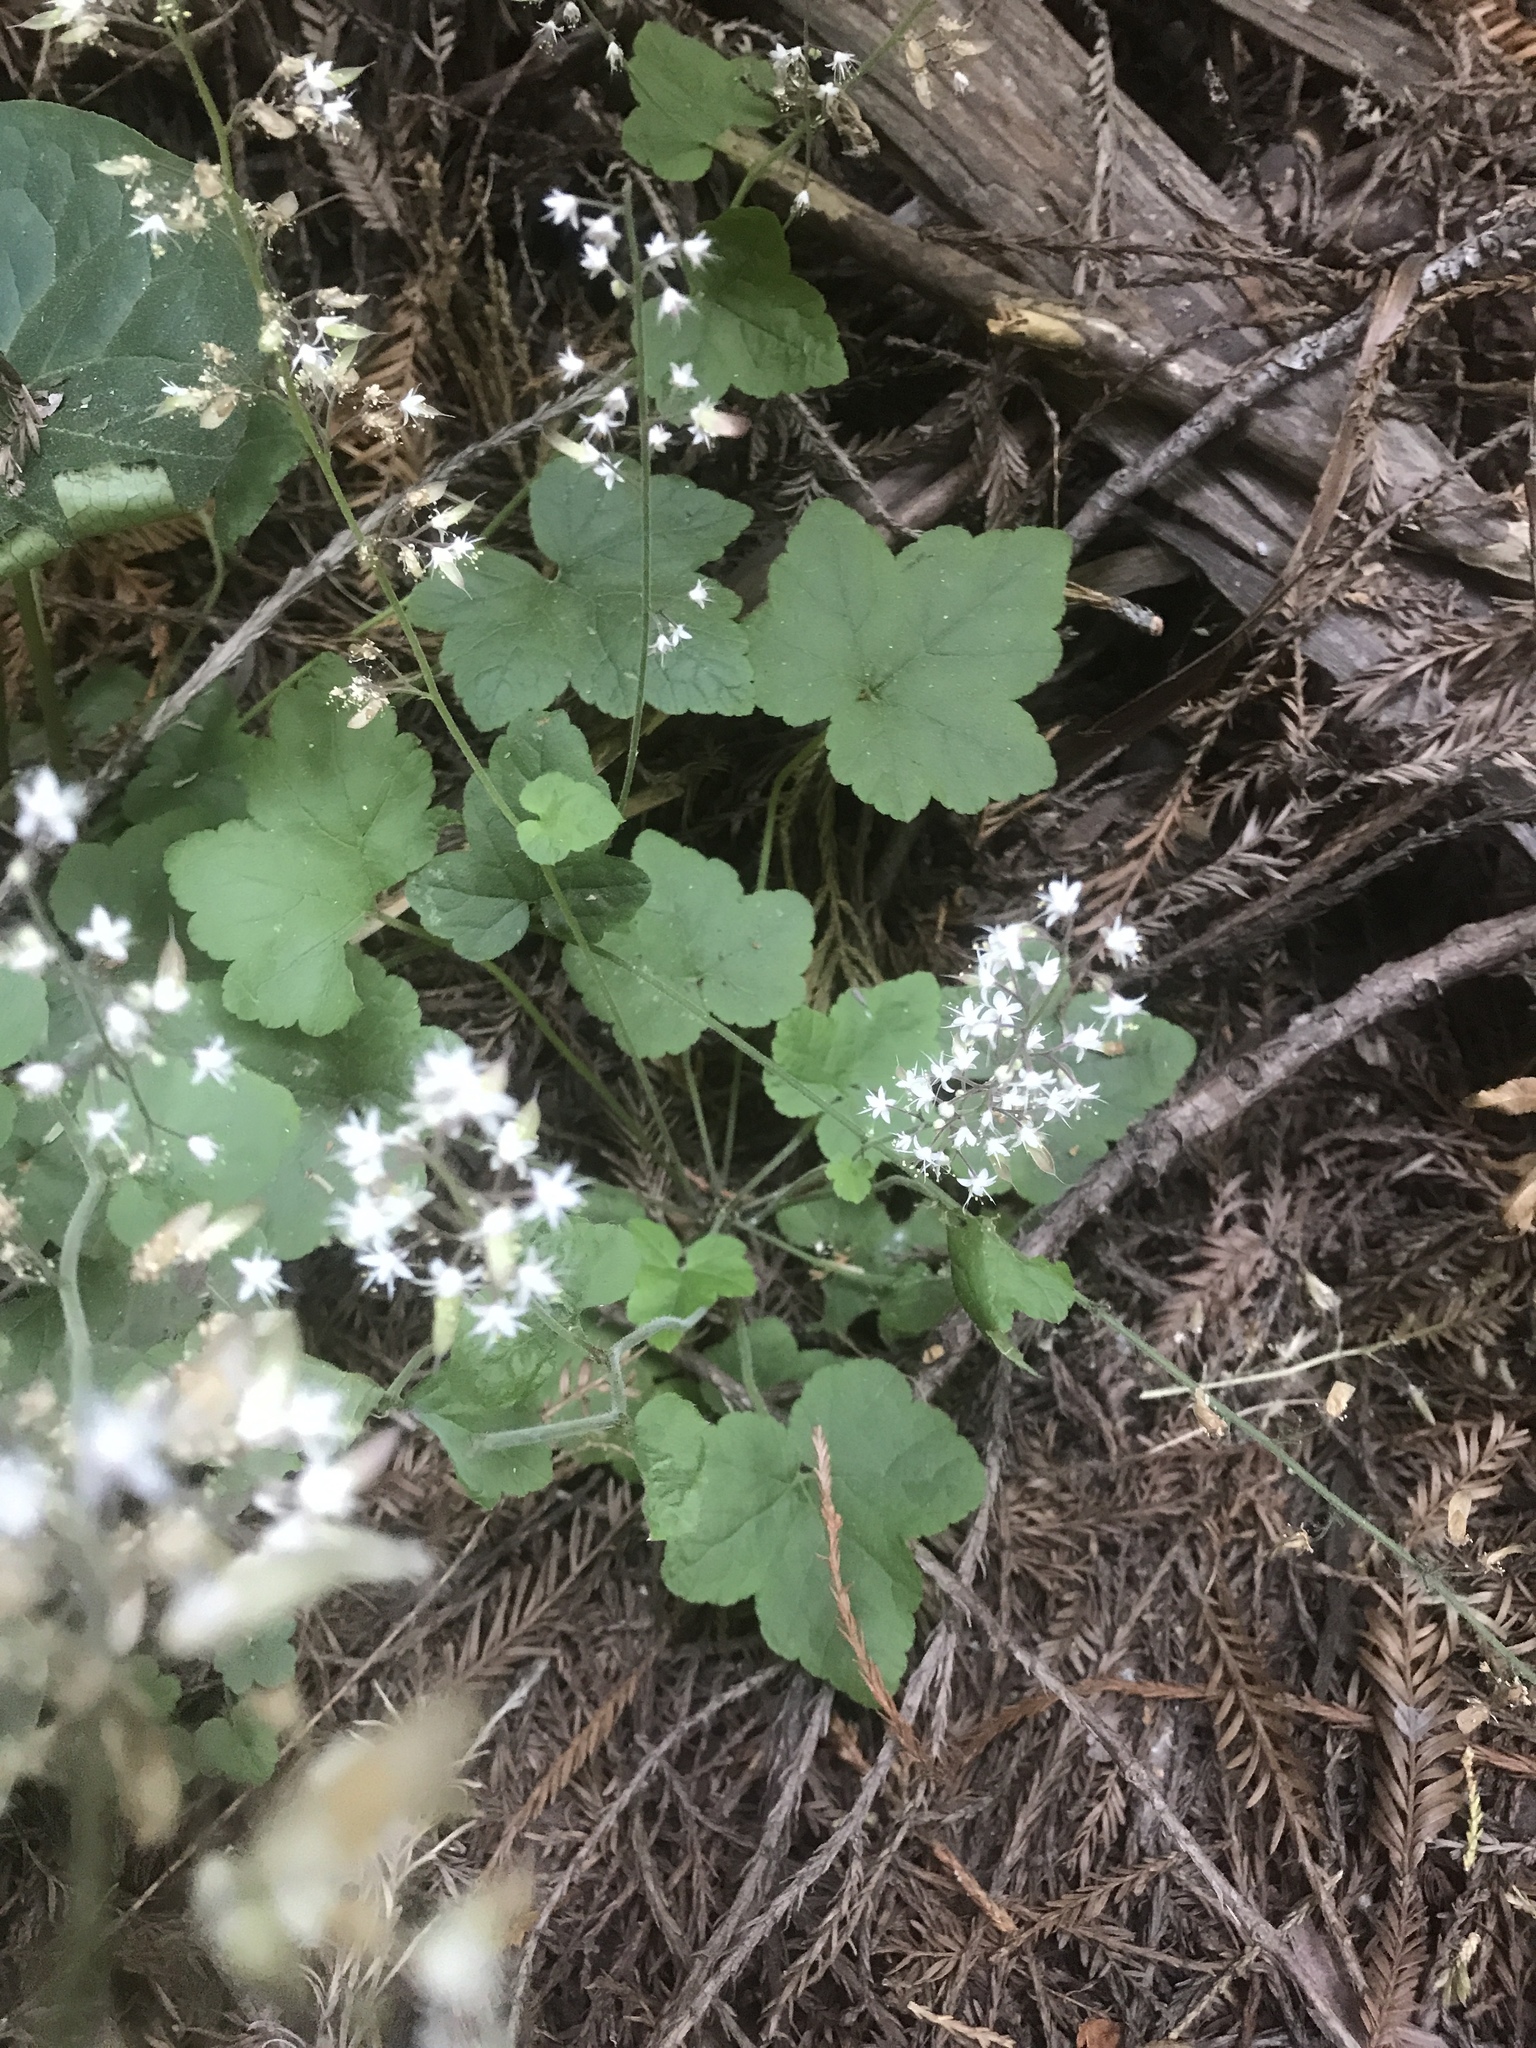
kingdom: Plantae
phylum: Tracheophyta
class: Magnoliopsida
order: Saxifragales
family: Saxifragaceae
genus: Tiarella
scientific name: Tiarella trifoliata
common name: Sugar-scoop
